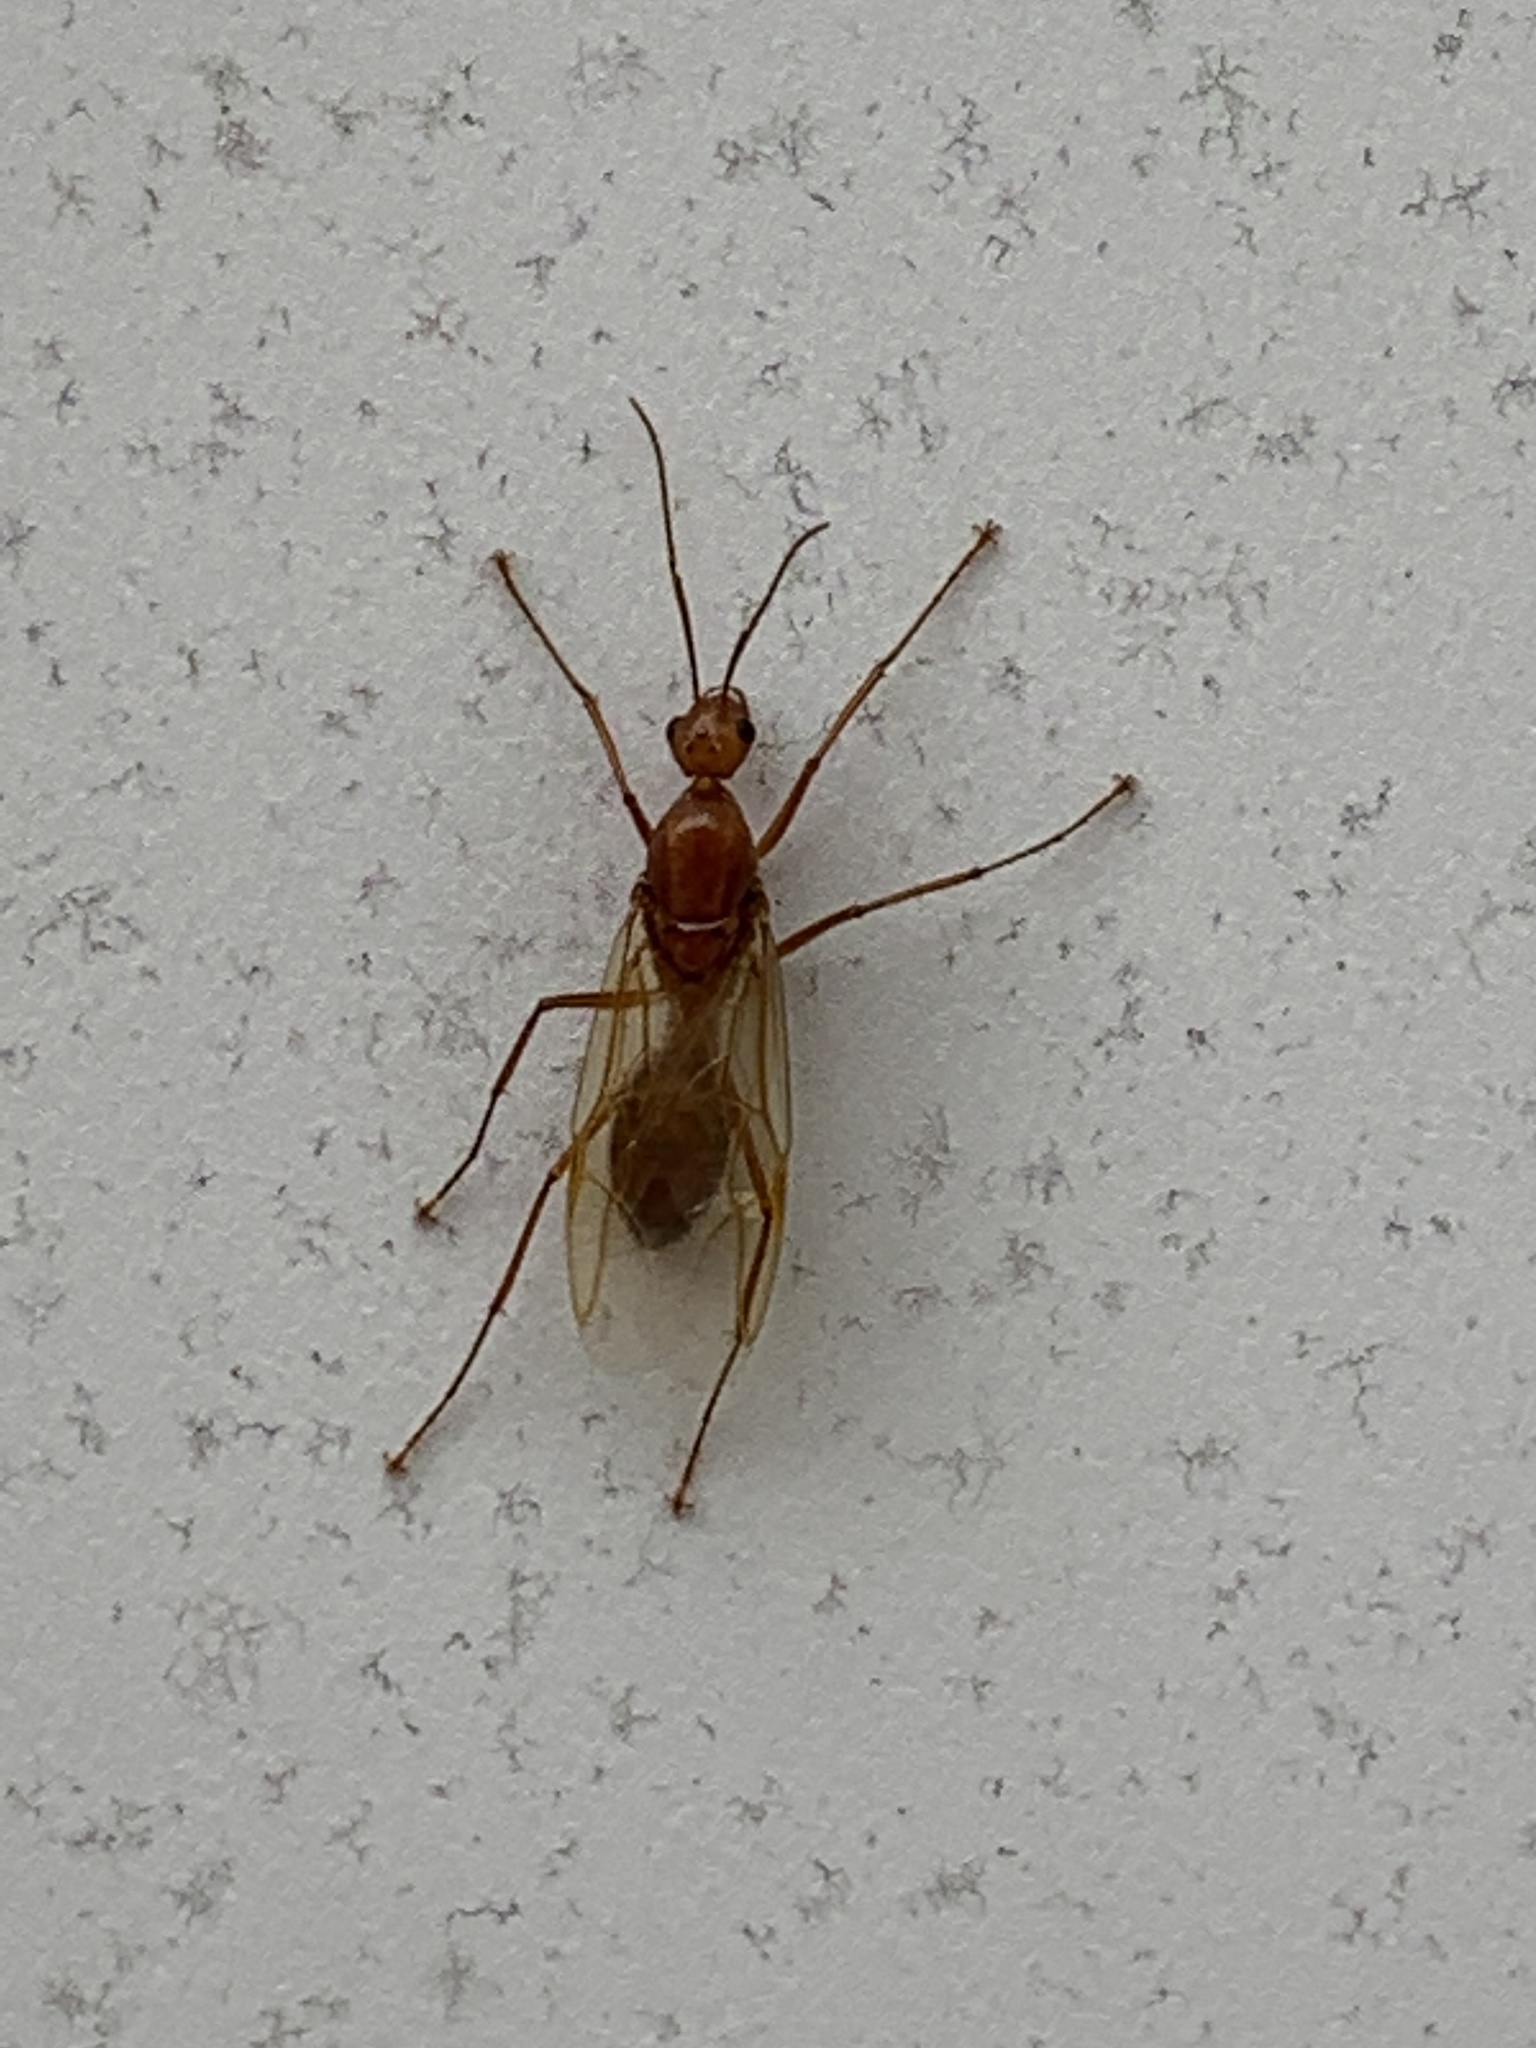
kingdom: Animalia
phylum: Arthropoda
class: Insecta
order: Hymenoptera
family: Formicidae
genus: Camponotus
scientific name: Camponotus castaneus
